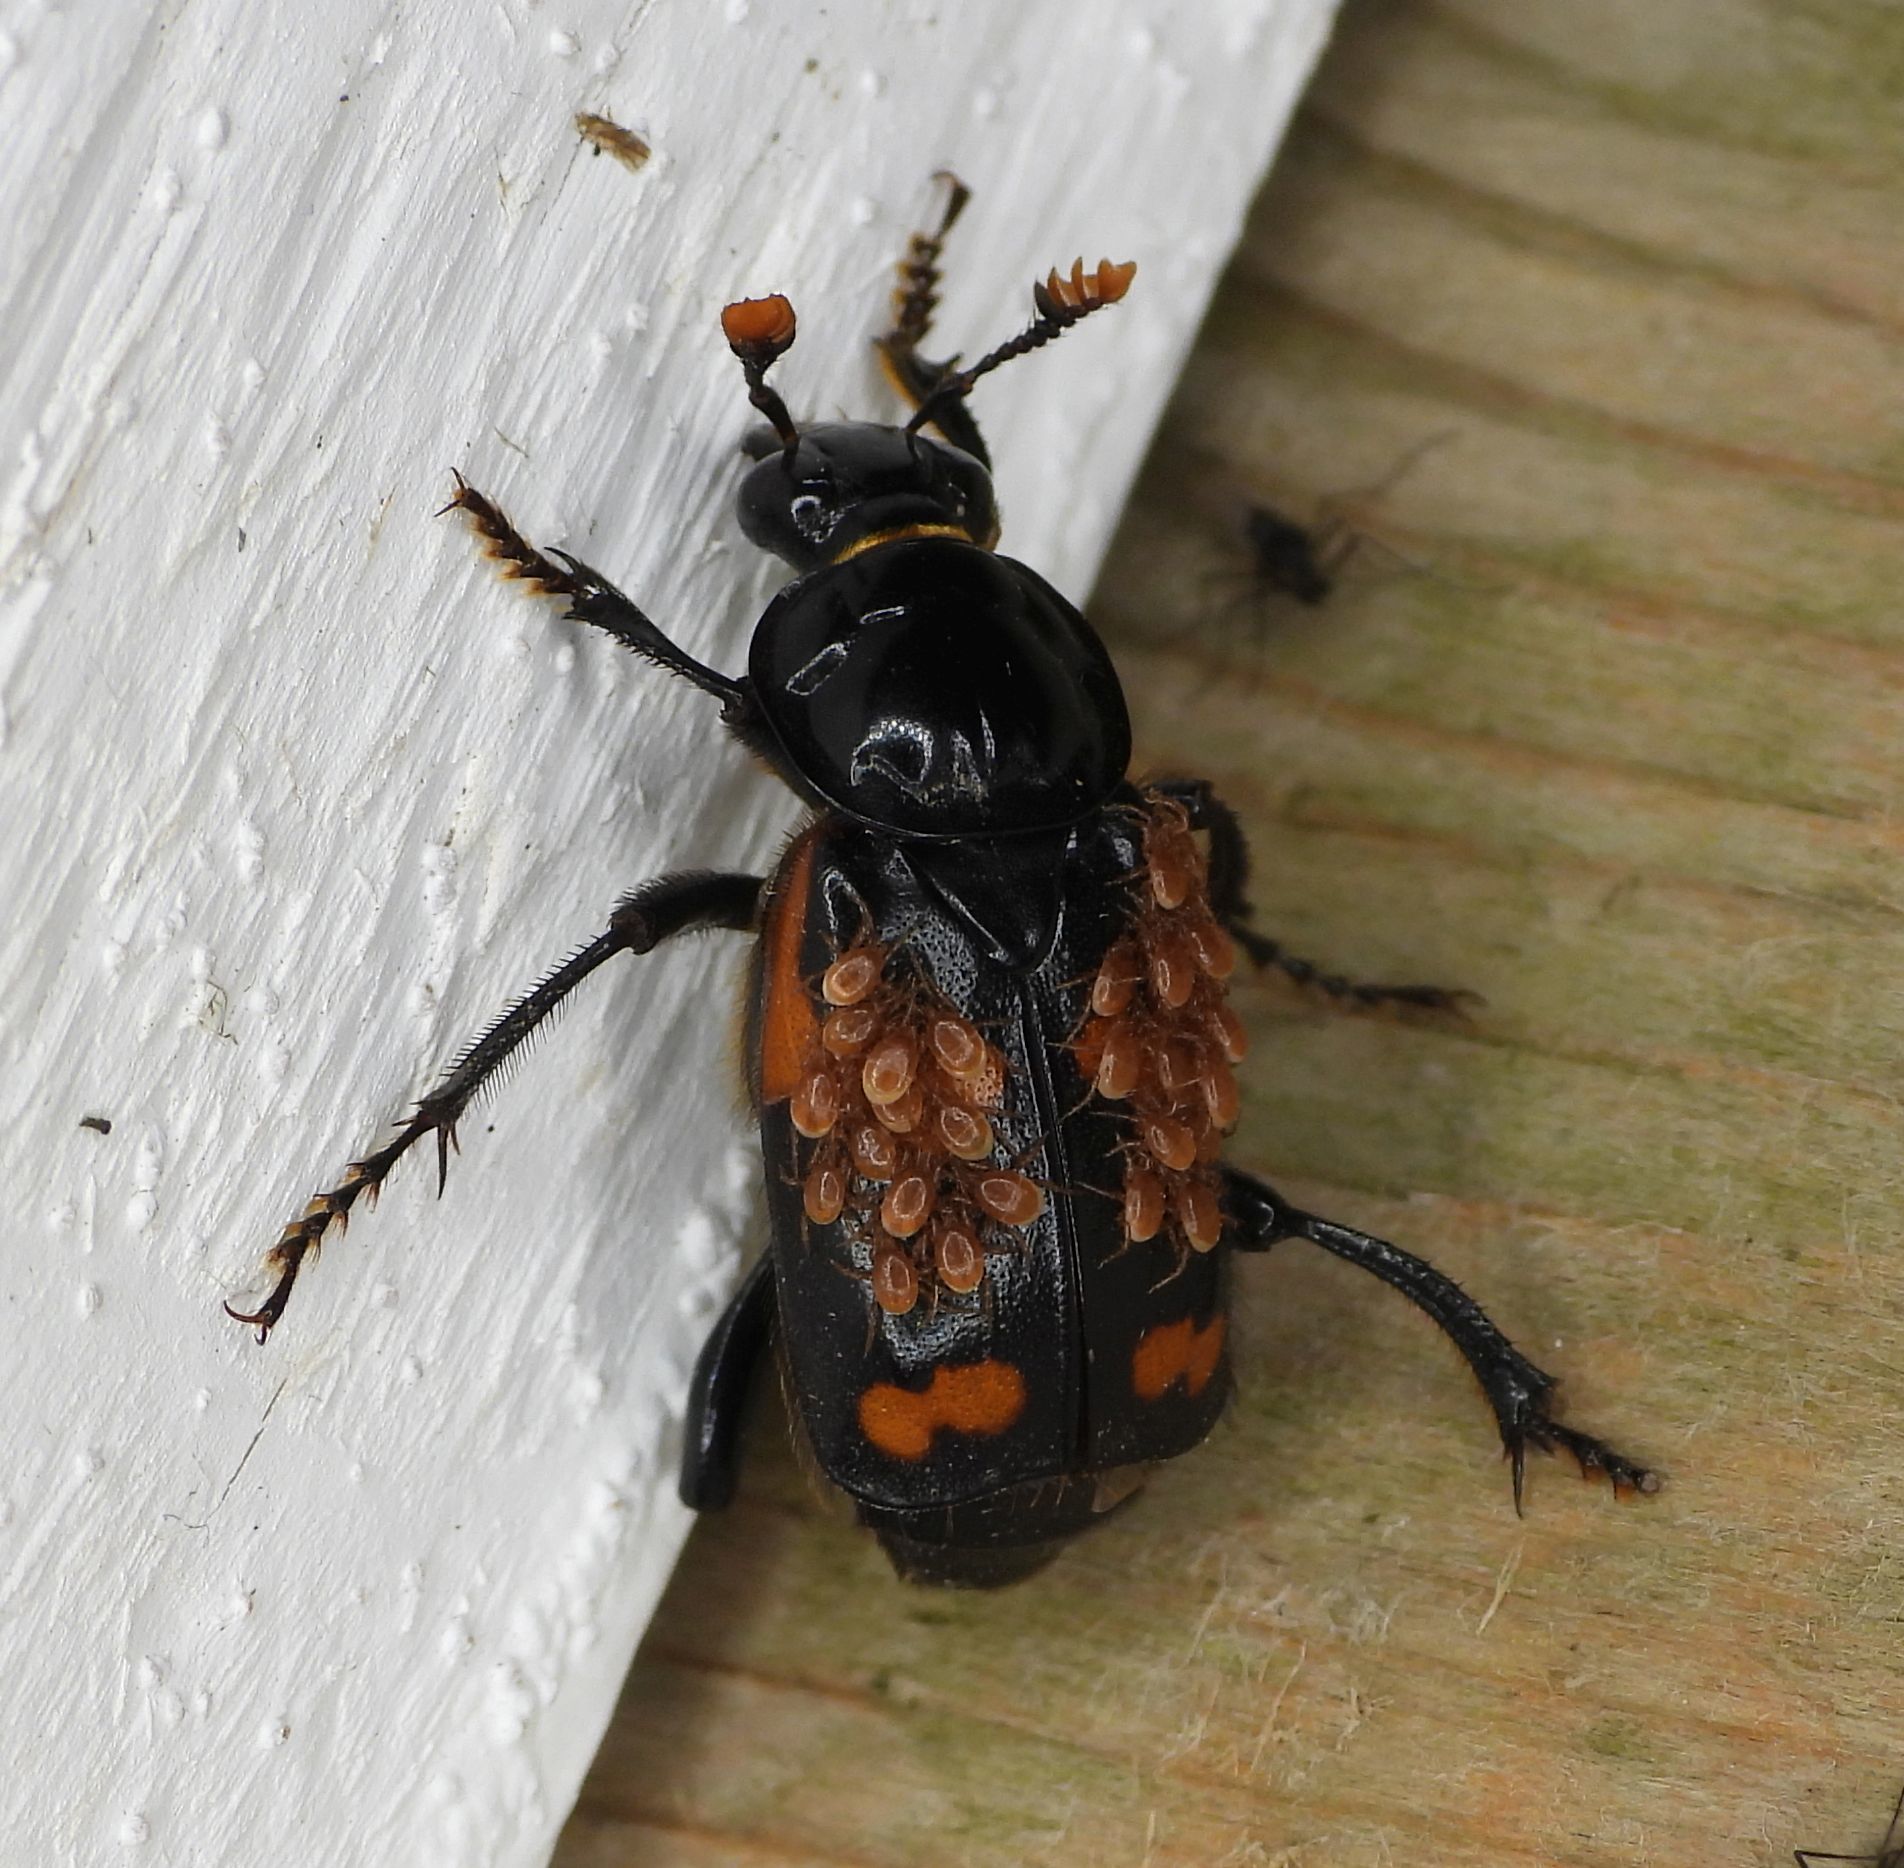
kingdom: Animalia
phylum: Arthropoda
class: Insecta
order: Coleoptera
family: Staphylinidae
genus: Nicrophorus
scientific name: Nicrophorus sayi
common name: Say's burying beetle
